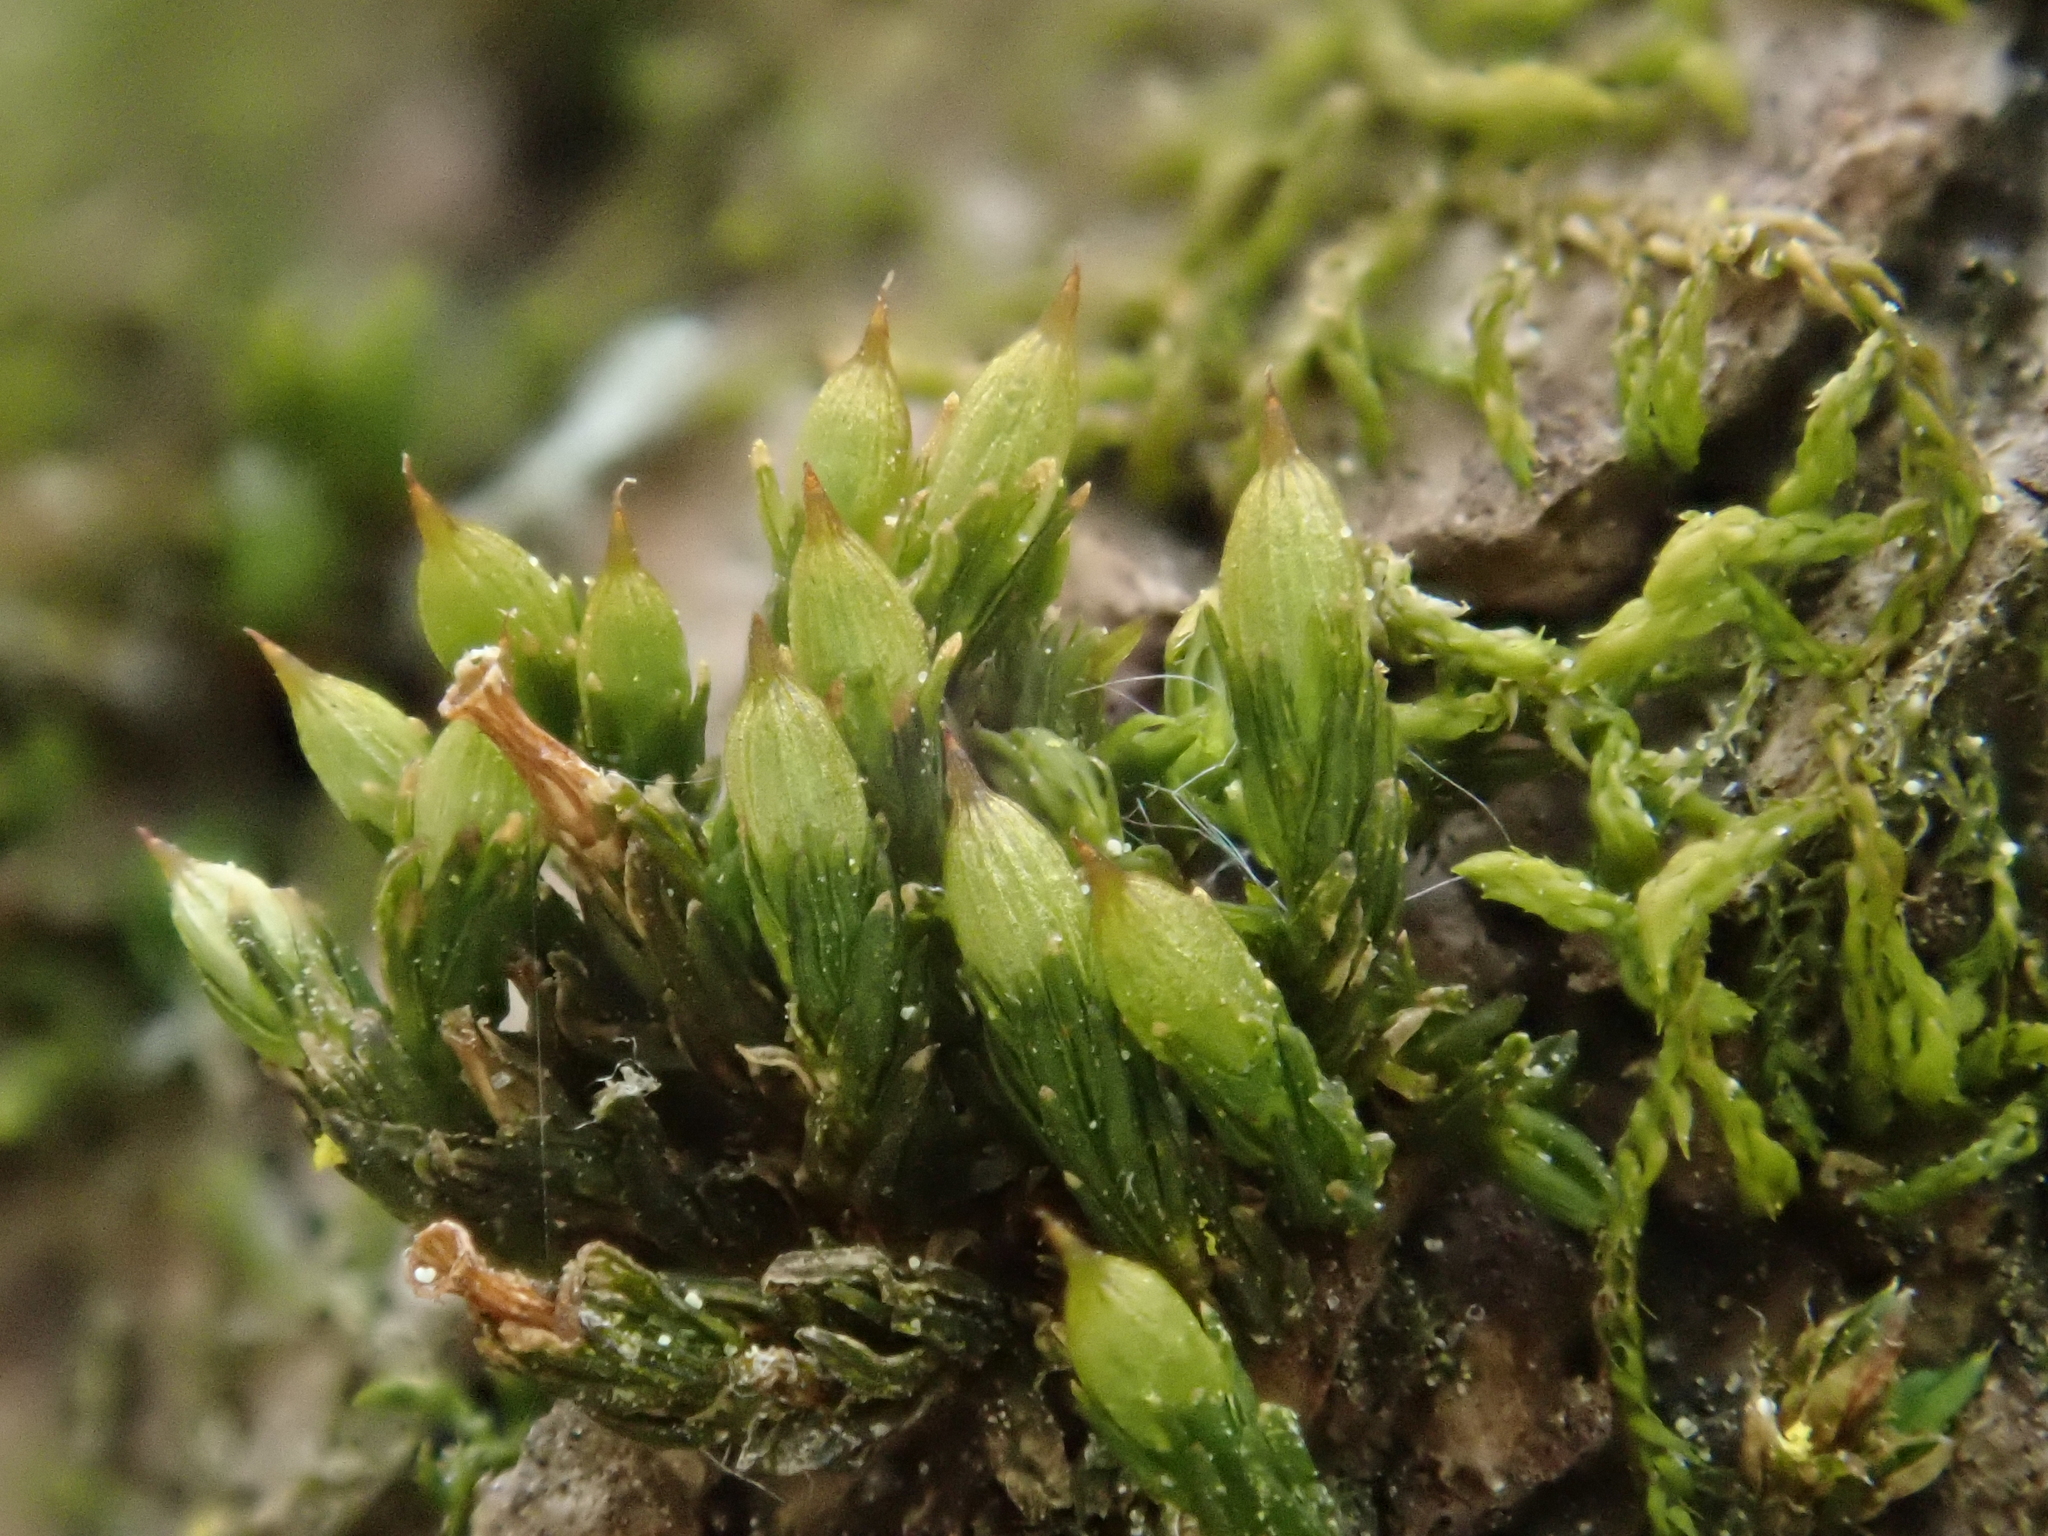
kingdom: Plantae
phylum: Bryophyta
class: Bryopsida
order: Orthotrichales
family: Orthotrichaceae
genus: Orthotrichum
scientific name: Orthotrichum pallens
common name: Pale bristle moss
